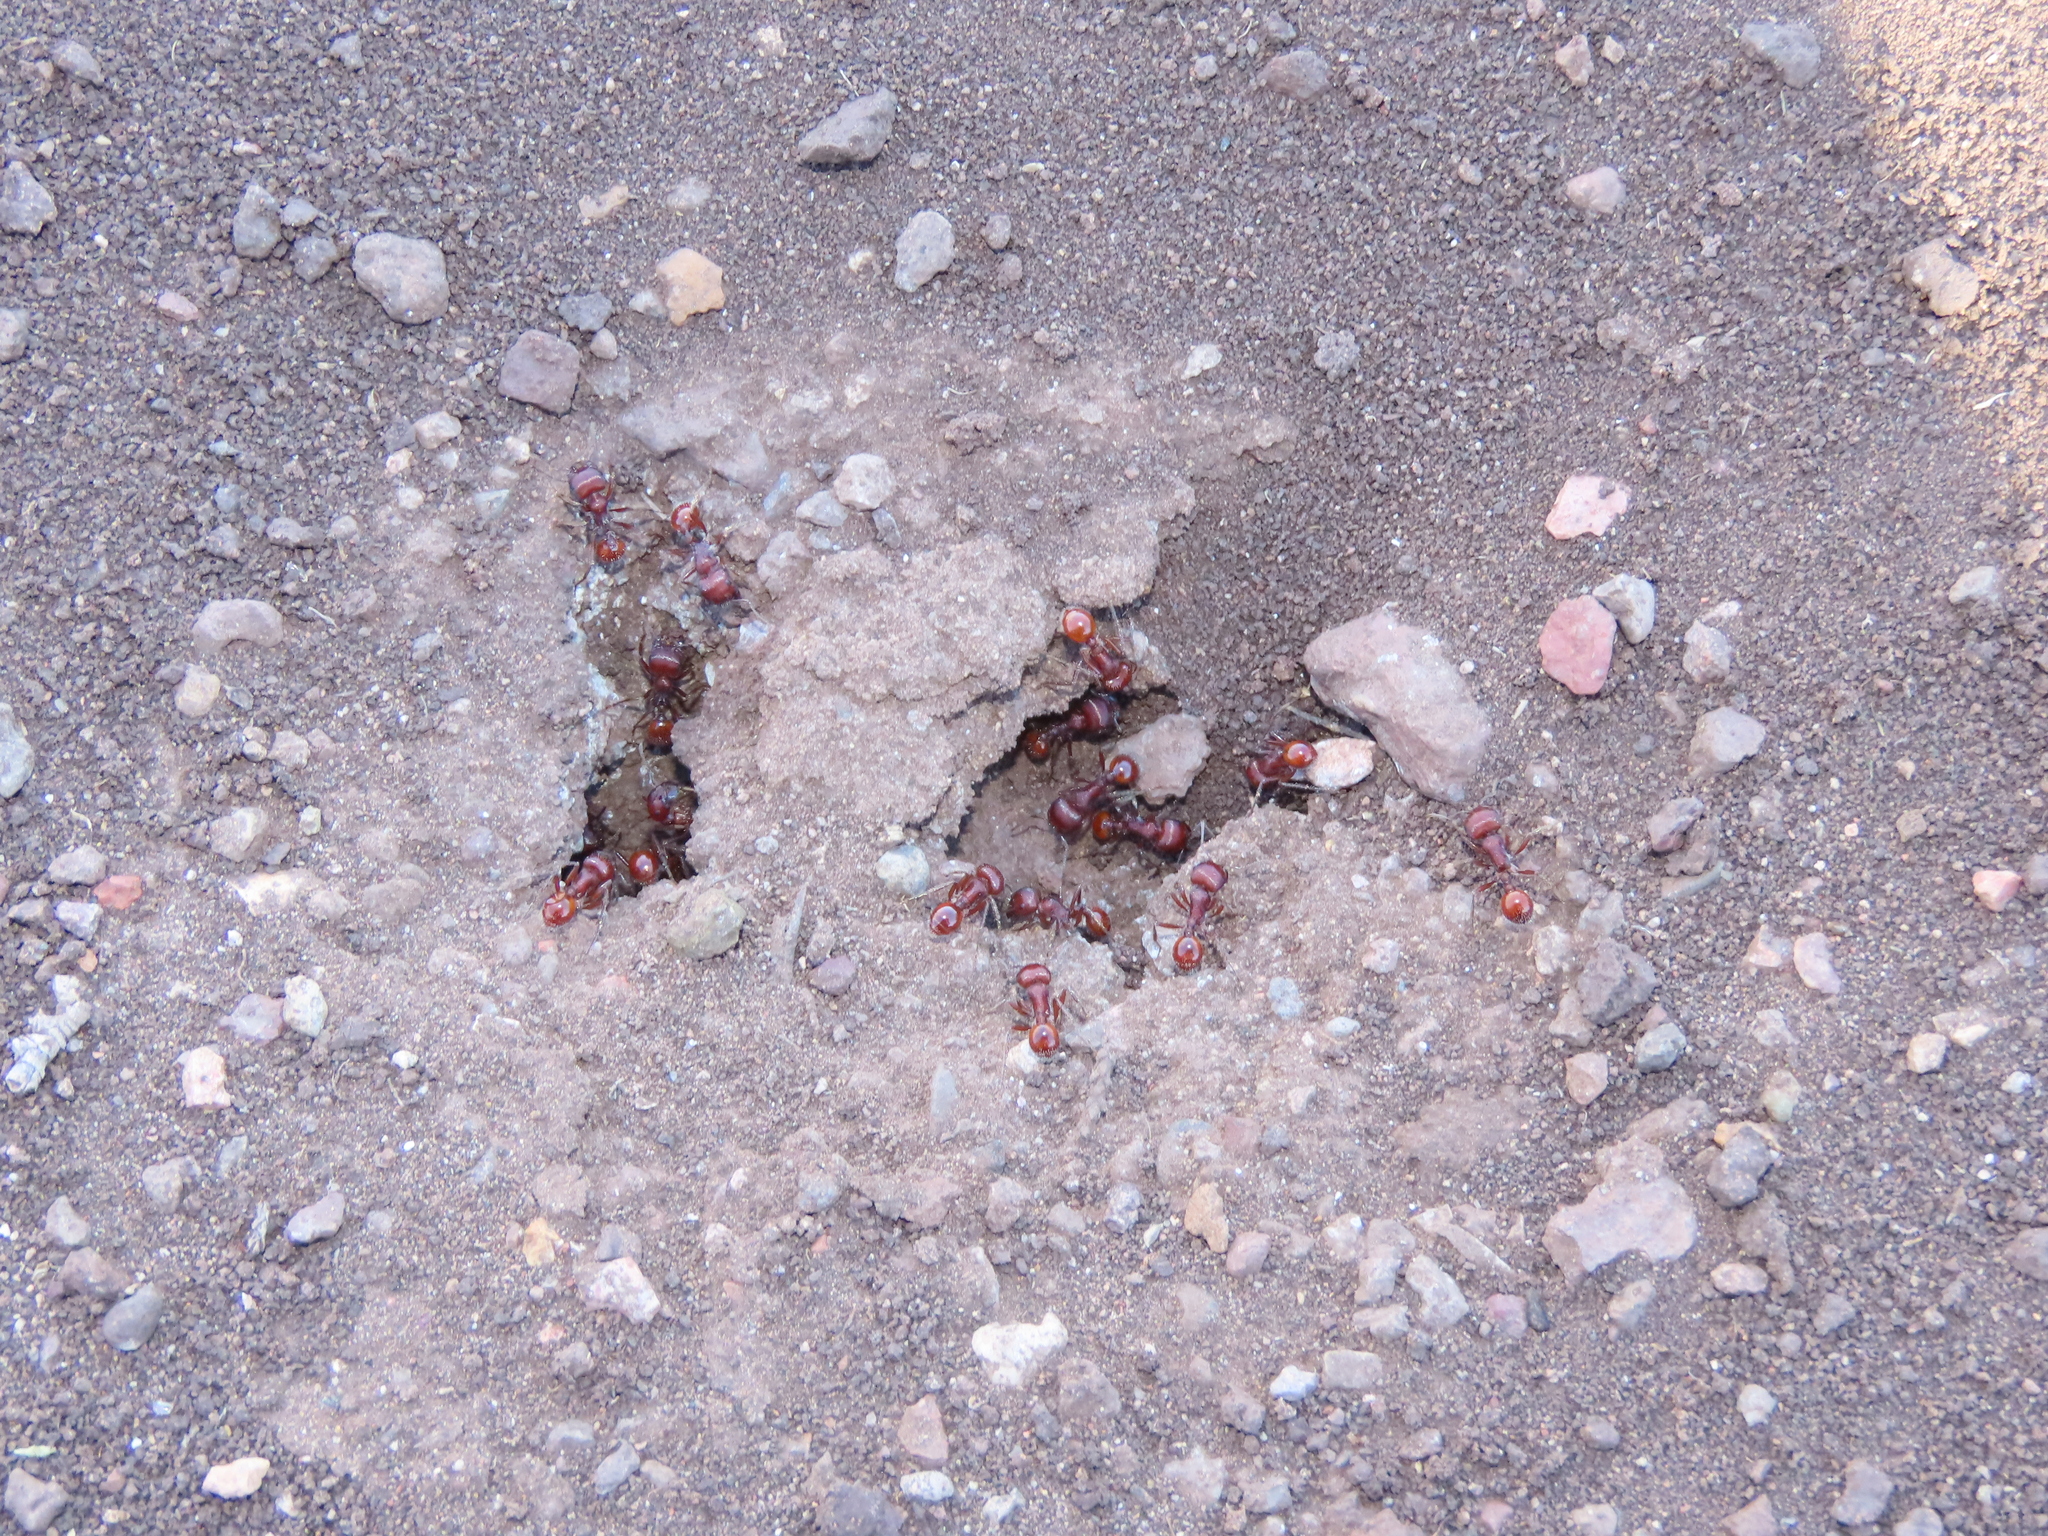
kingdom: Animalia
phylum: Arthropoda
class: Insecta
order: Hymenoptera
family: Formicidae
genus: Pogonomyrmex
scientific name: Pogonomyrmex barbatus
